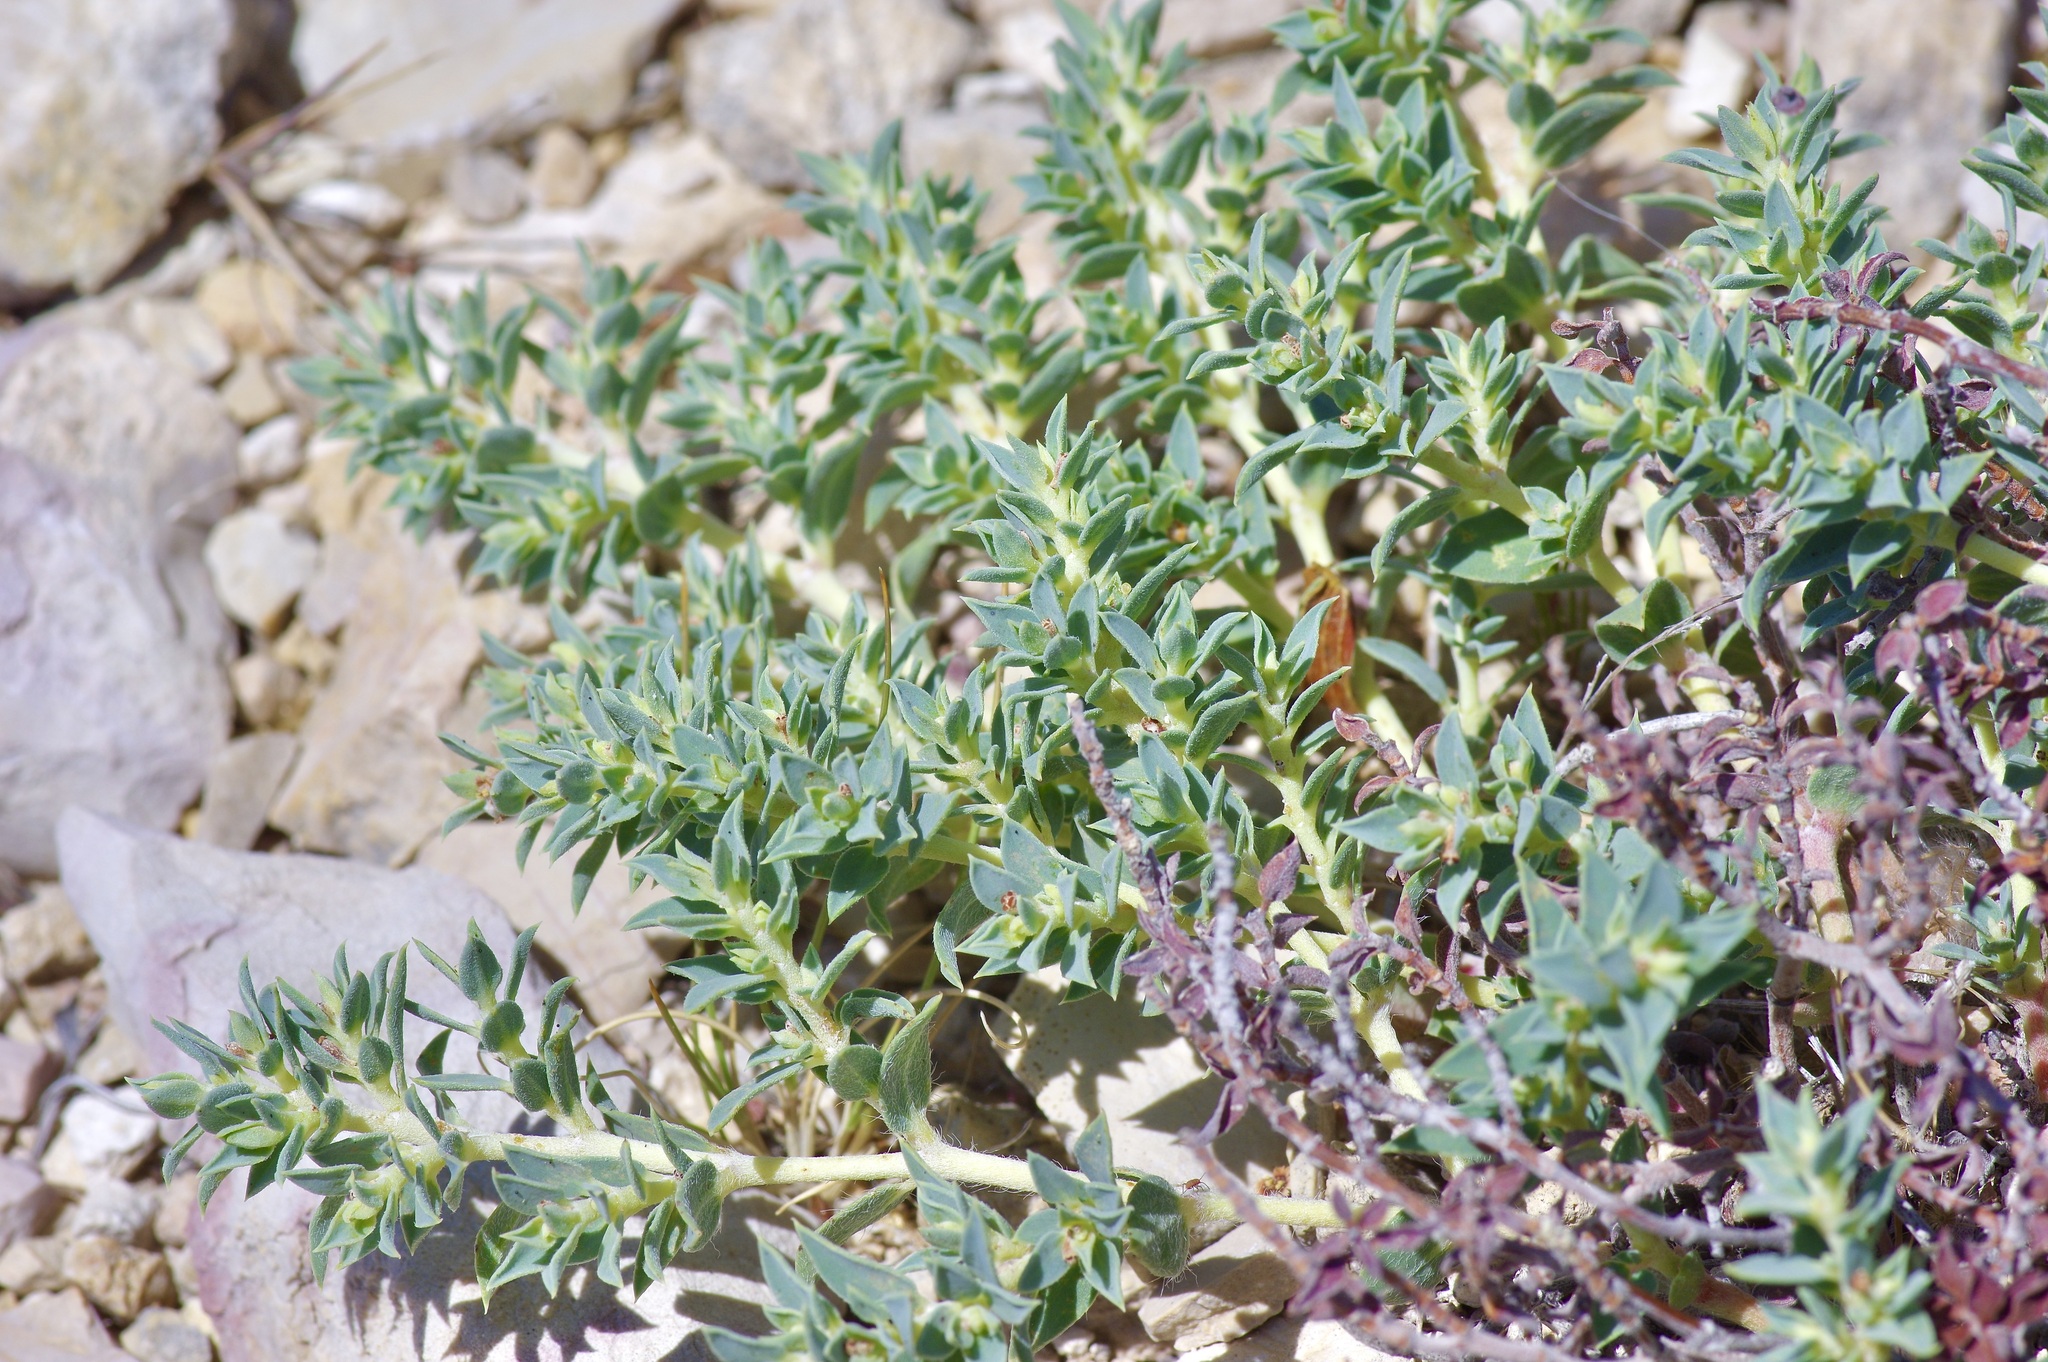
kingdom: Plantae
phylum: Tracheophyta
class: Magnoliopsida
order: Malpighiales
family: Euphorbiaceae
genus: Euphorbia
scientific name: Euphorbia acuta
